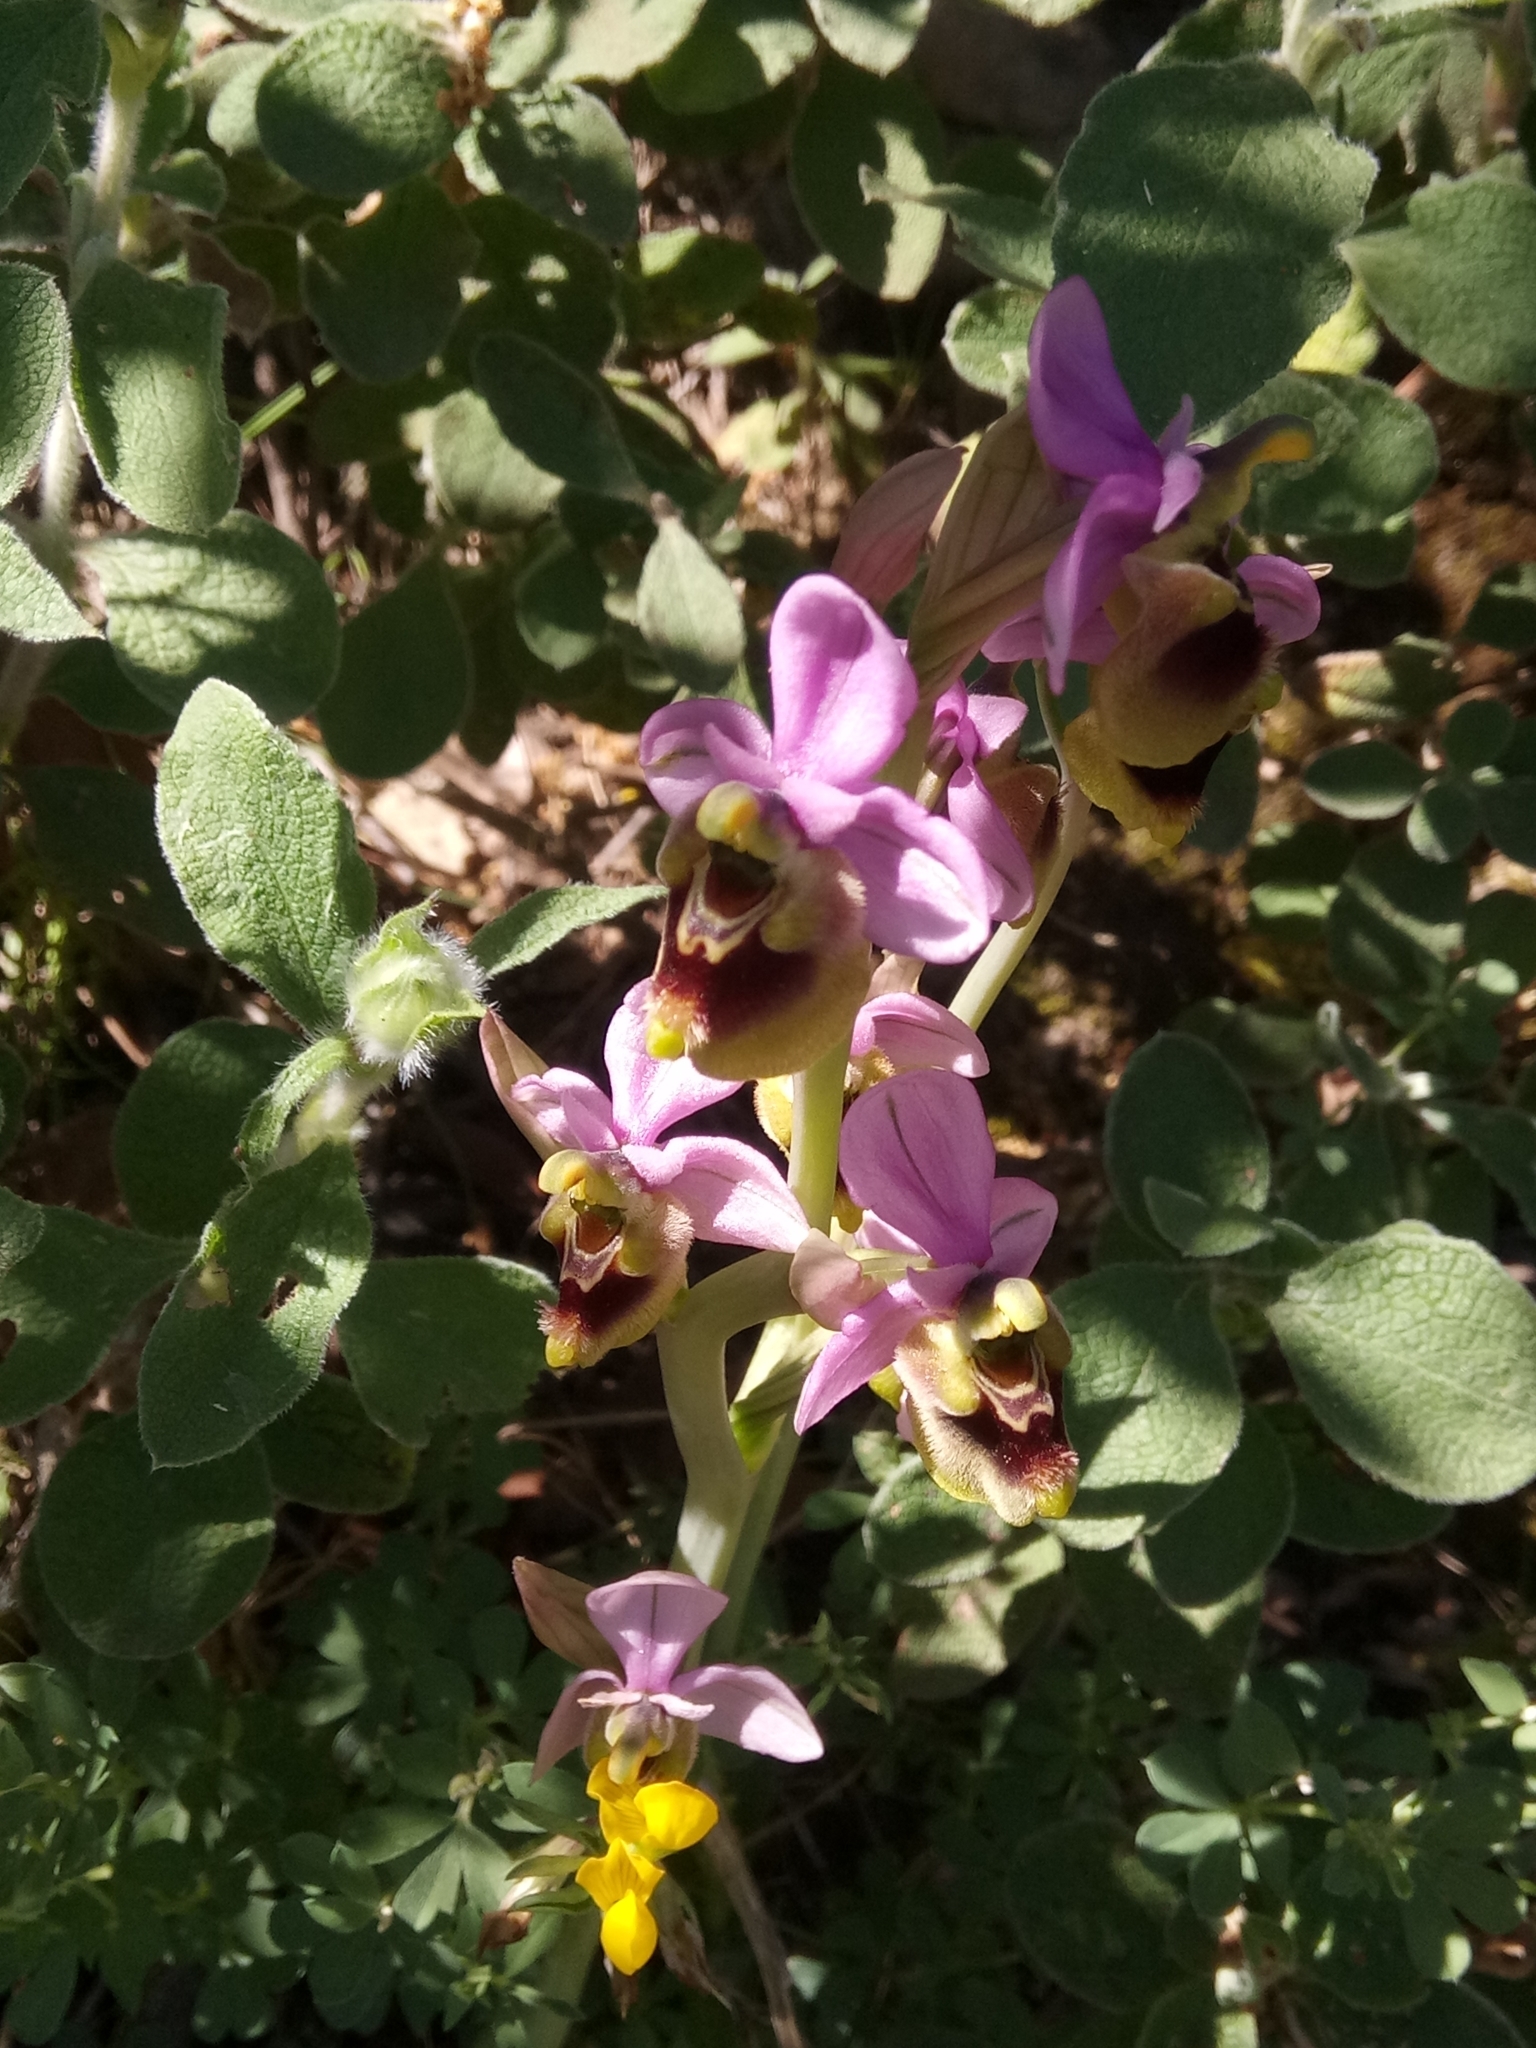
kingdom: Plantae
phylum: Tracheophyta
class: Liliopsida
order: Asparagales
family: Orchidaceae
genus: Ophrys
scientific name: Ophrys tenthredinifera
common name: Sawfly orchid
